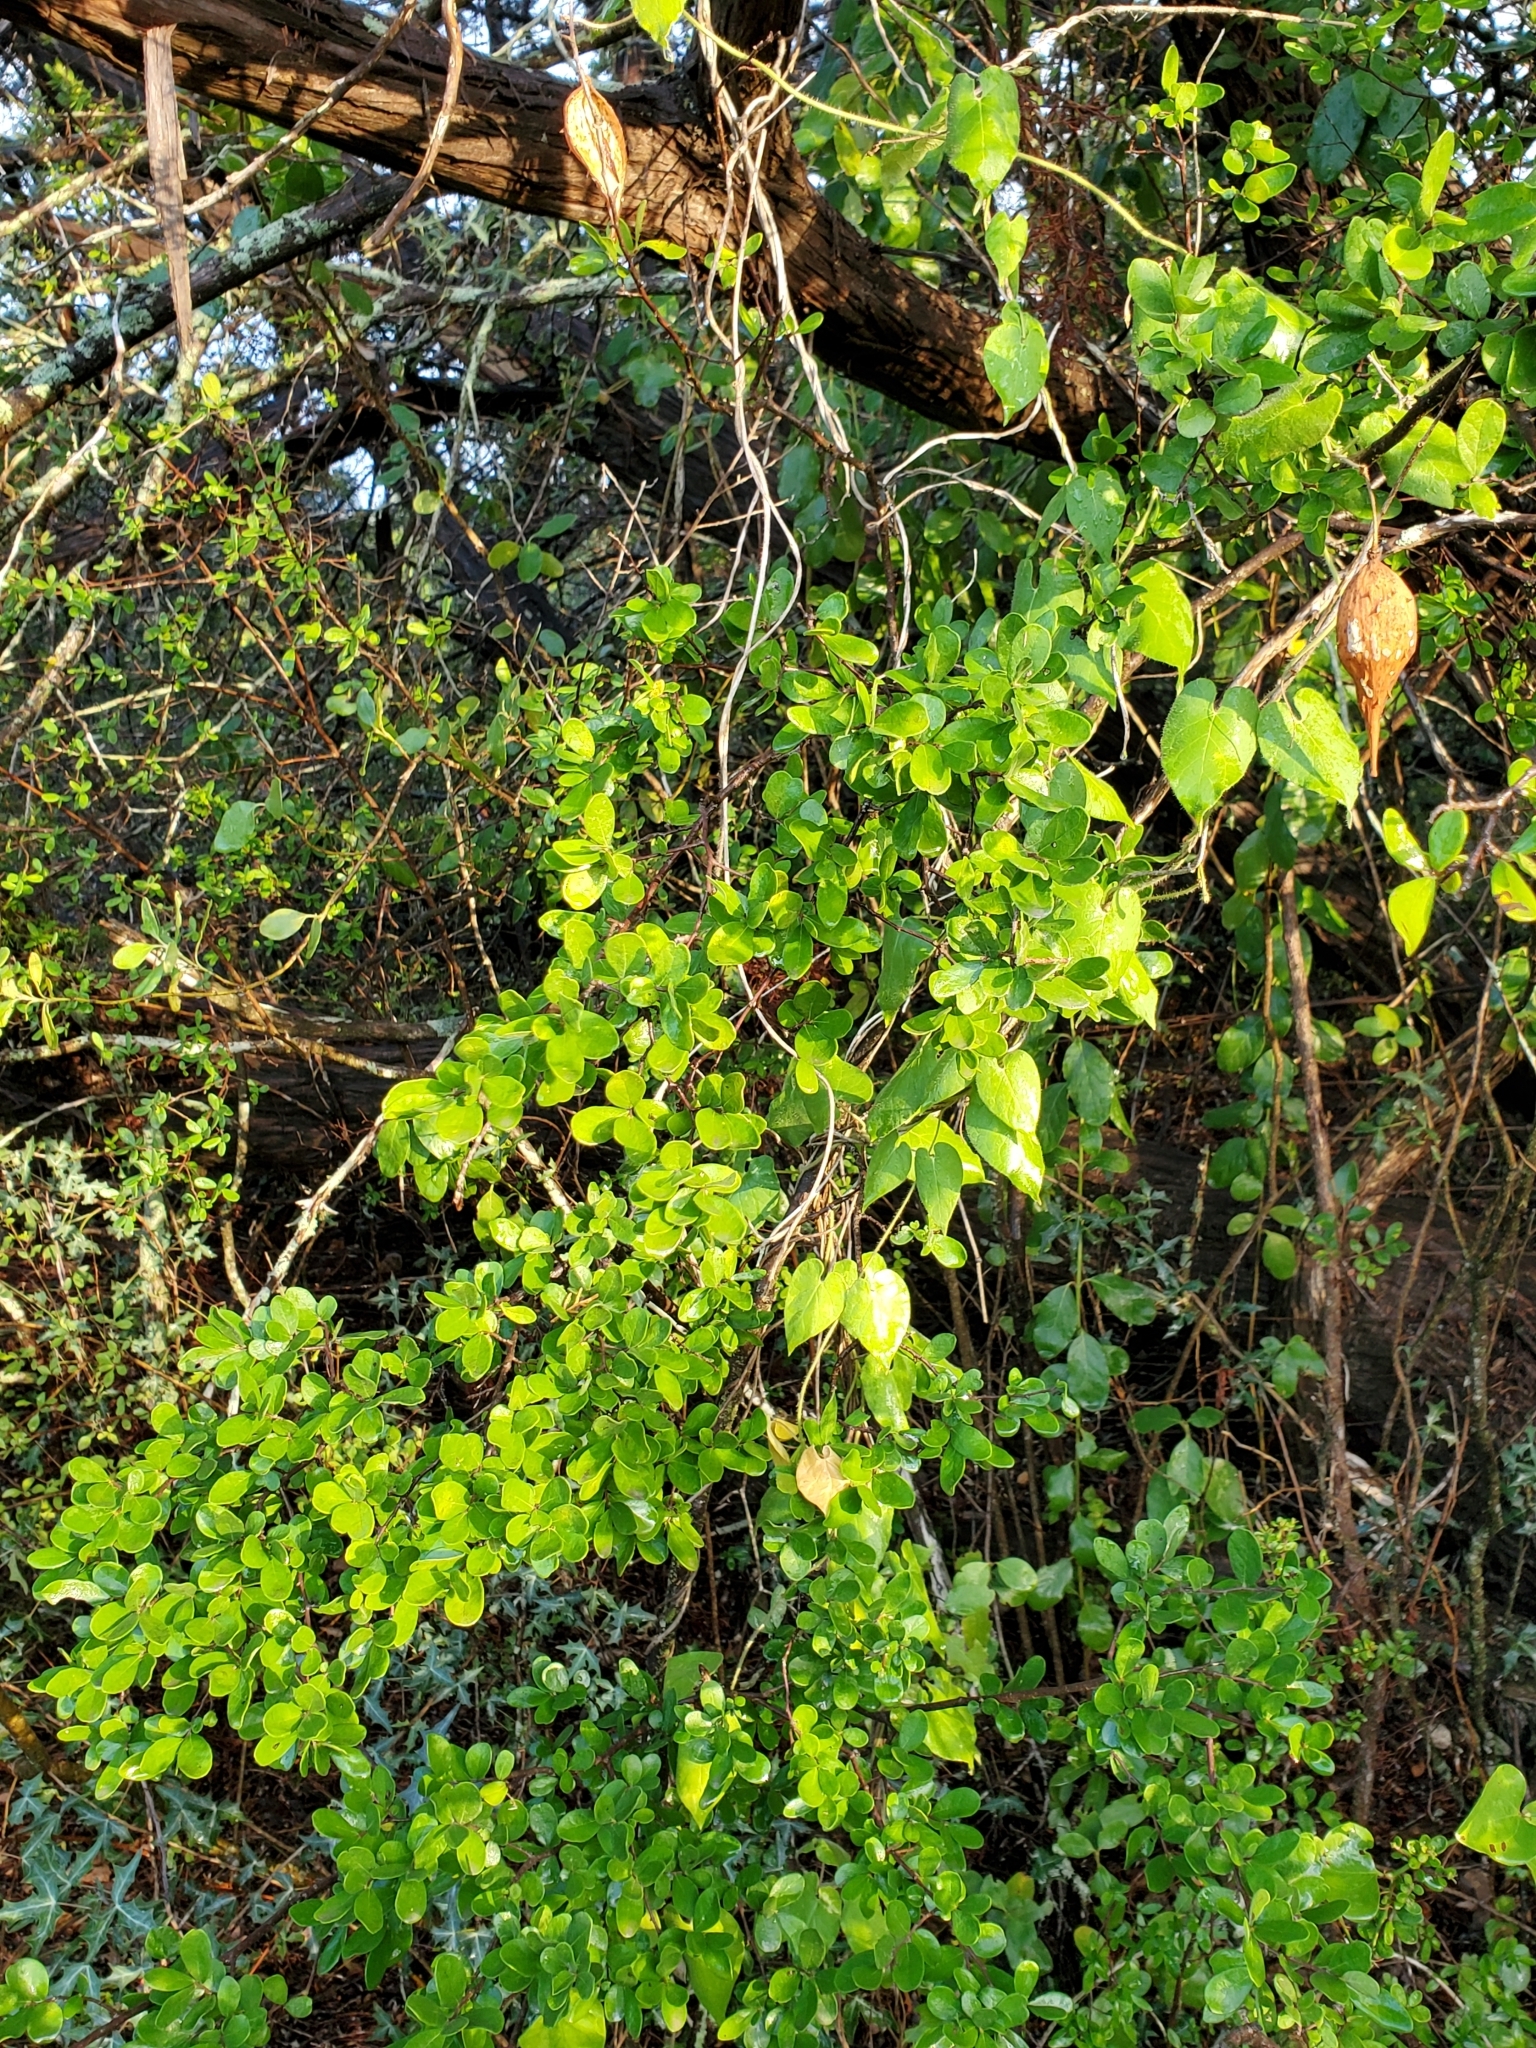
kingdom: Plantae
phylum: Tracheophyta
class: Magnoliopsida
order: Gentianales
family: Apocynaceae
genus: Dictyanthus
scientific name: Dictyanthus reticulatus
